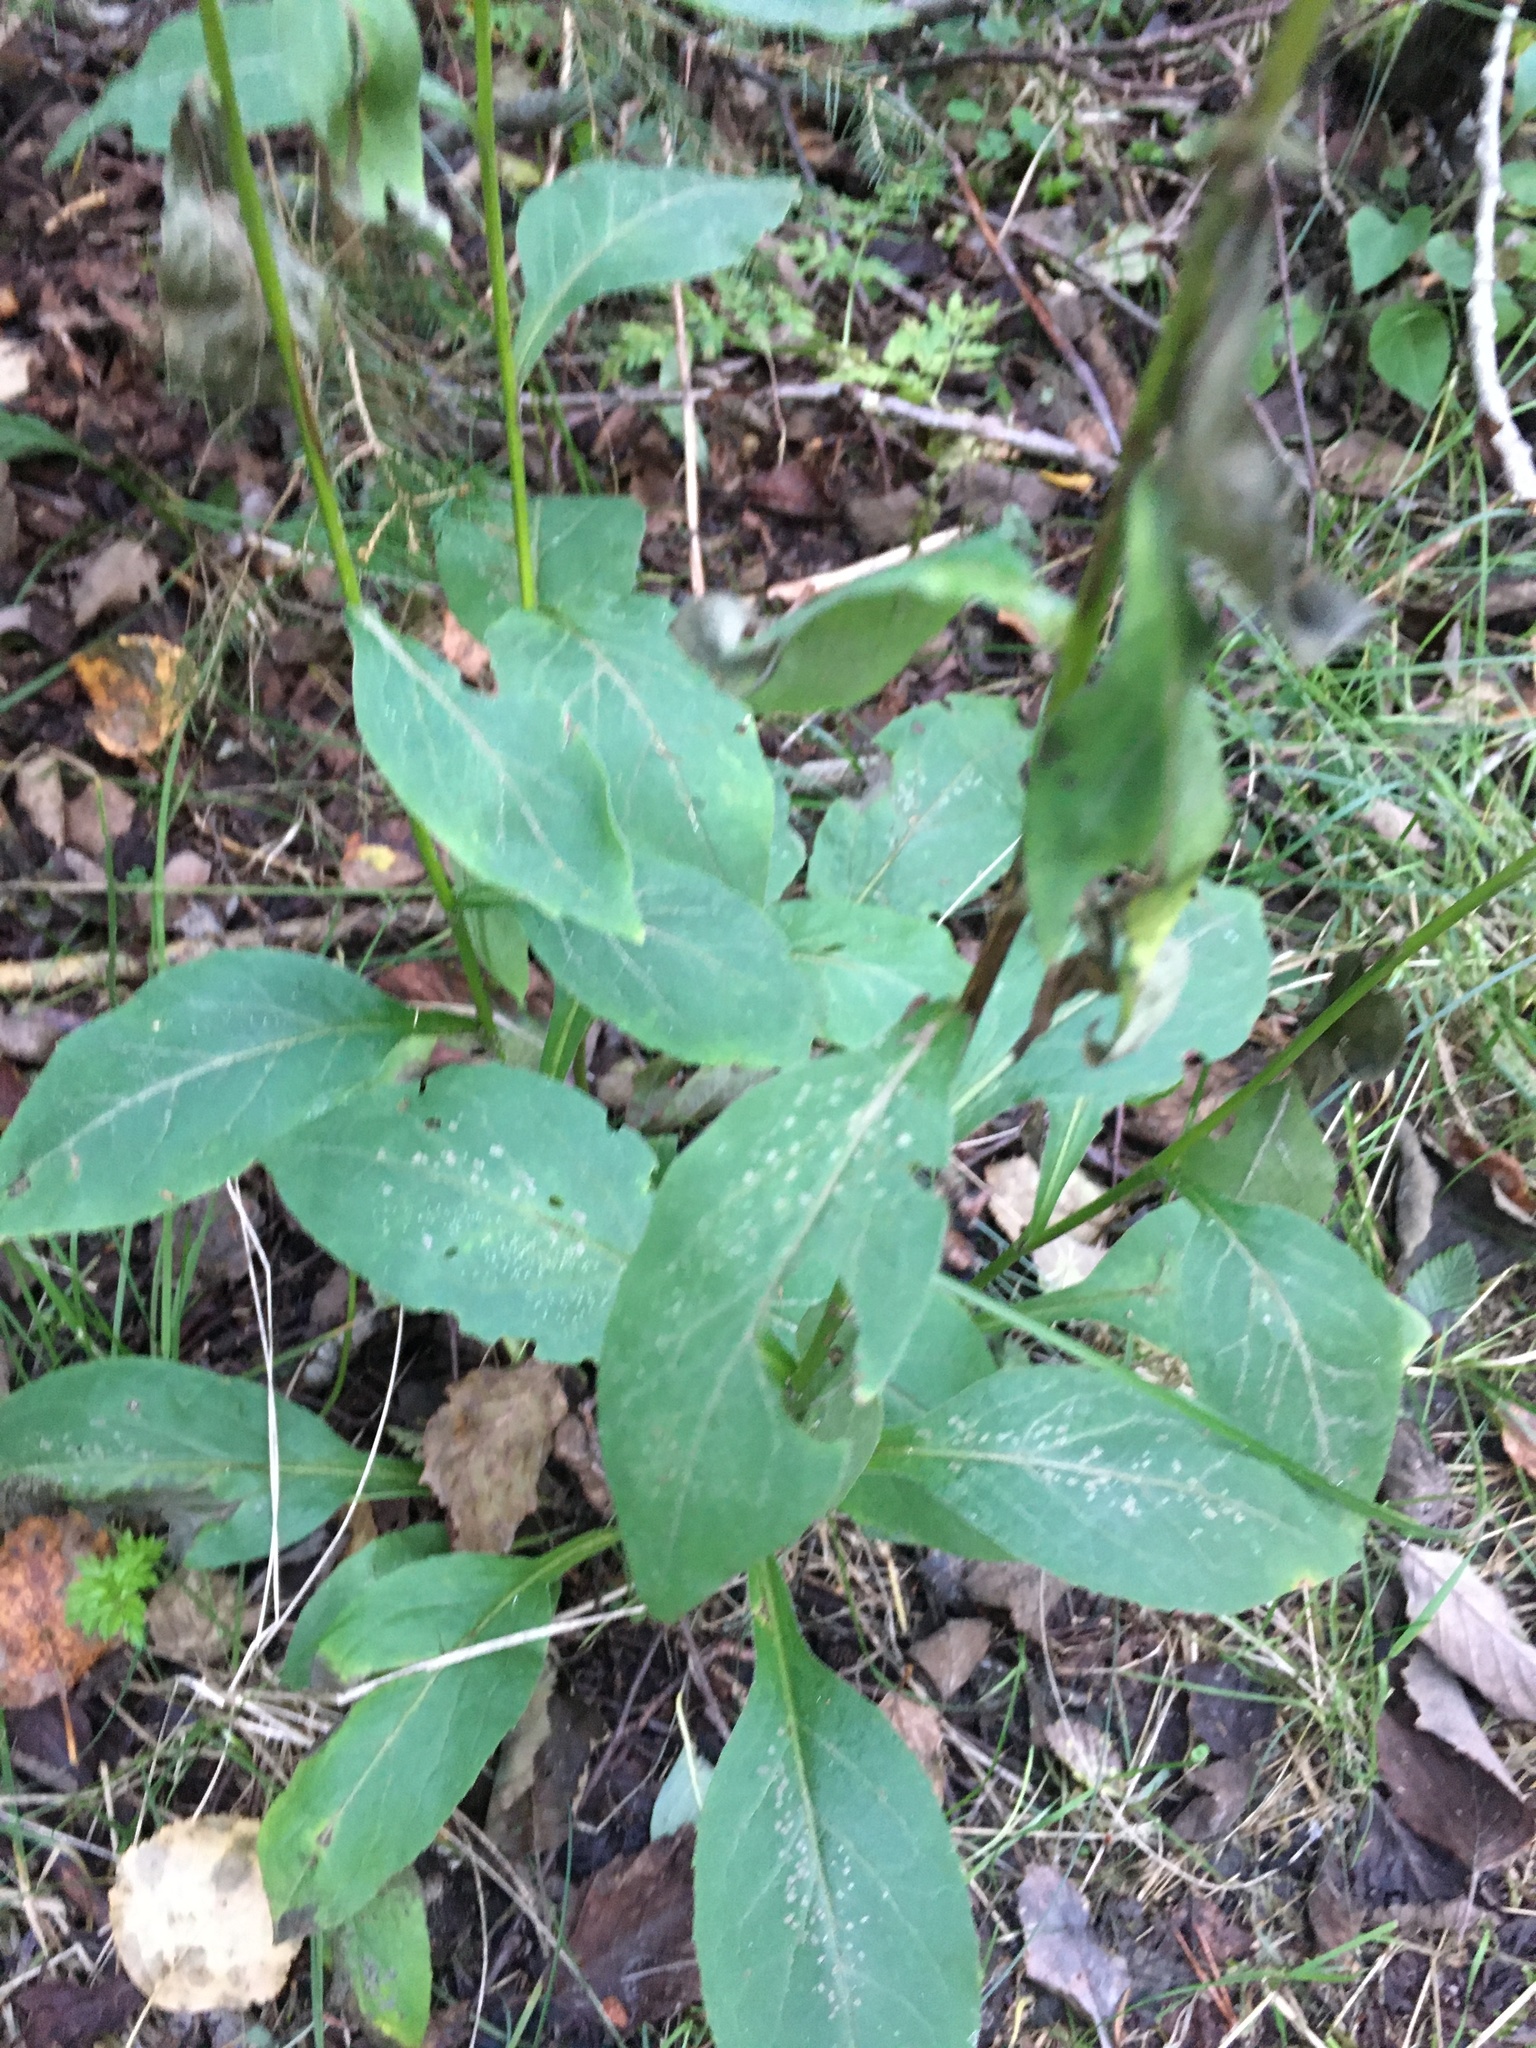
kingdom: Plantae
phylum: Tracheophyta
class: Magnoliopsida
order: Asterales
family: Asteraceae
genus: Solidago
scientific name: Solidago virgaurea
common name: Goldenrod
